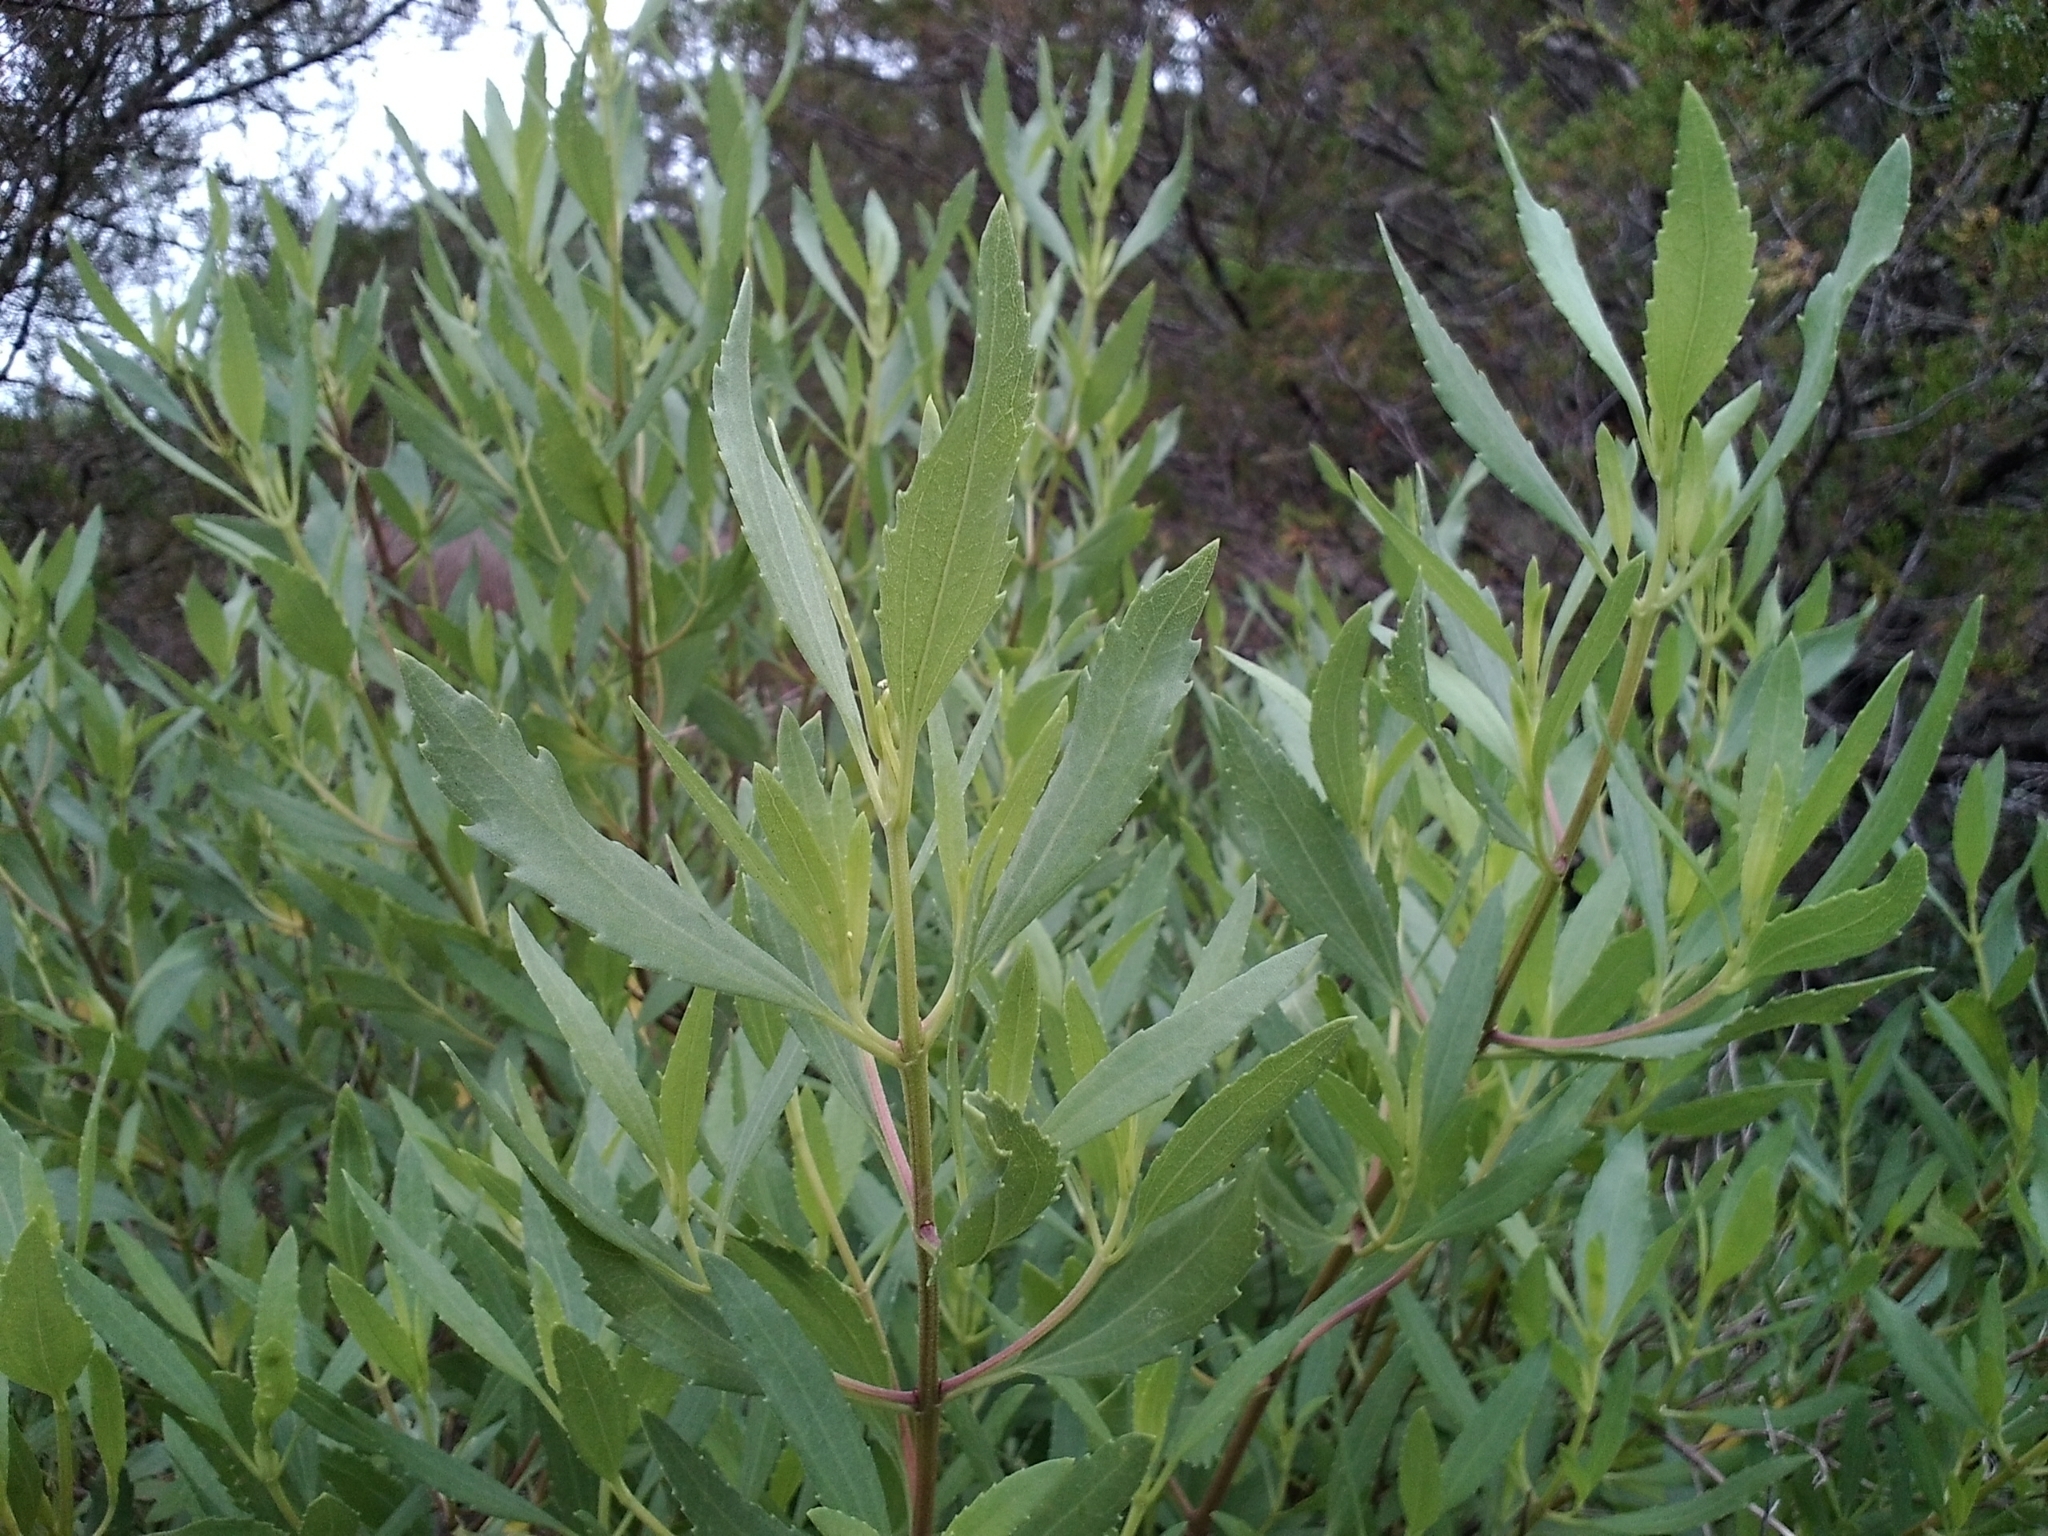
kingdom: Plantae
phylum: Tracheophyta
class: Magnoliopsida
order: Asterales
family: Asteraceae
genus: Baccharis
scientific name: Baccharis halimifolia
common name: Eastern baccharis
